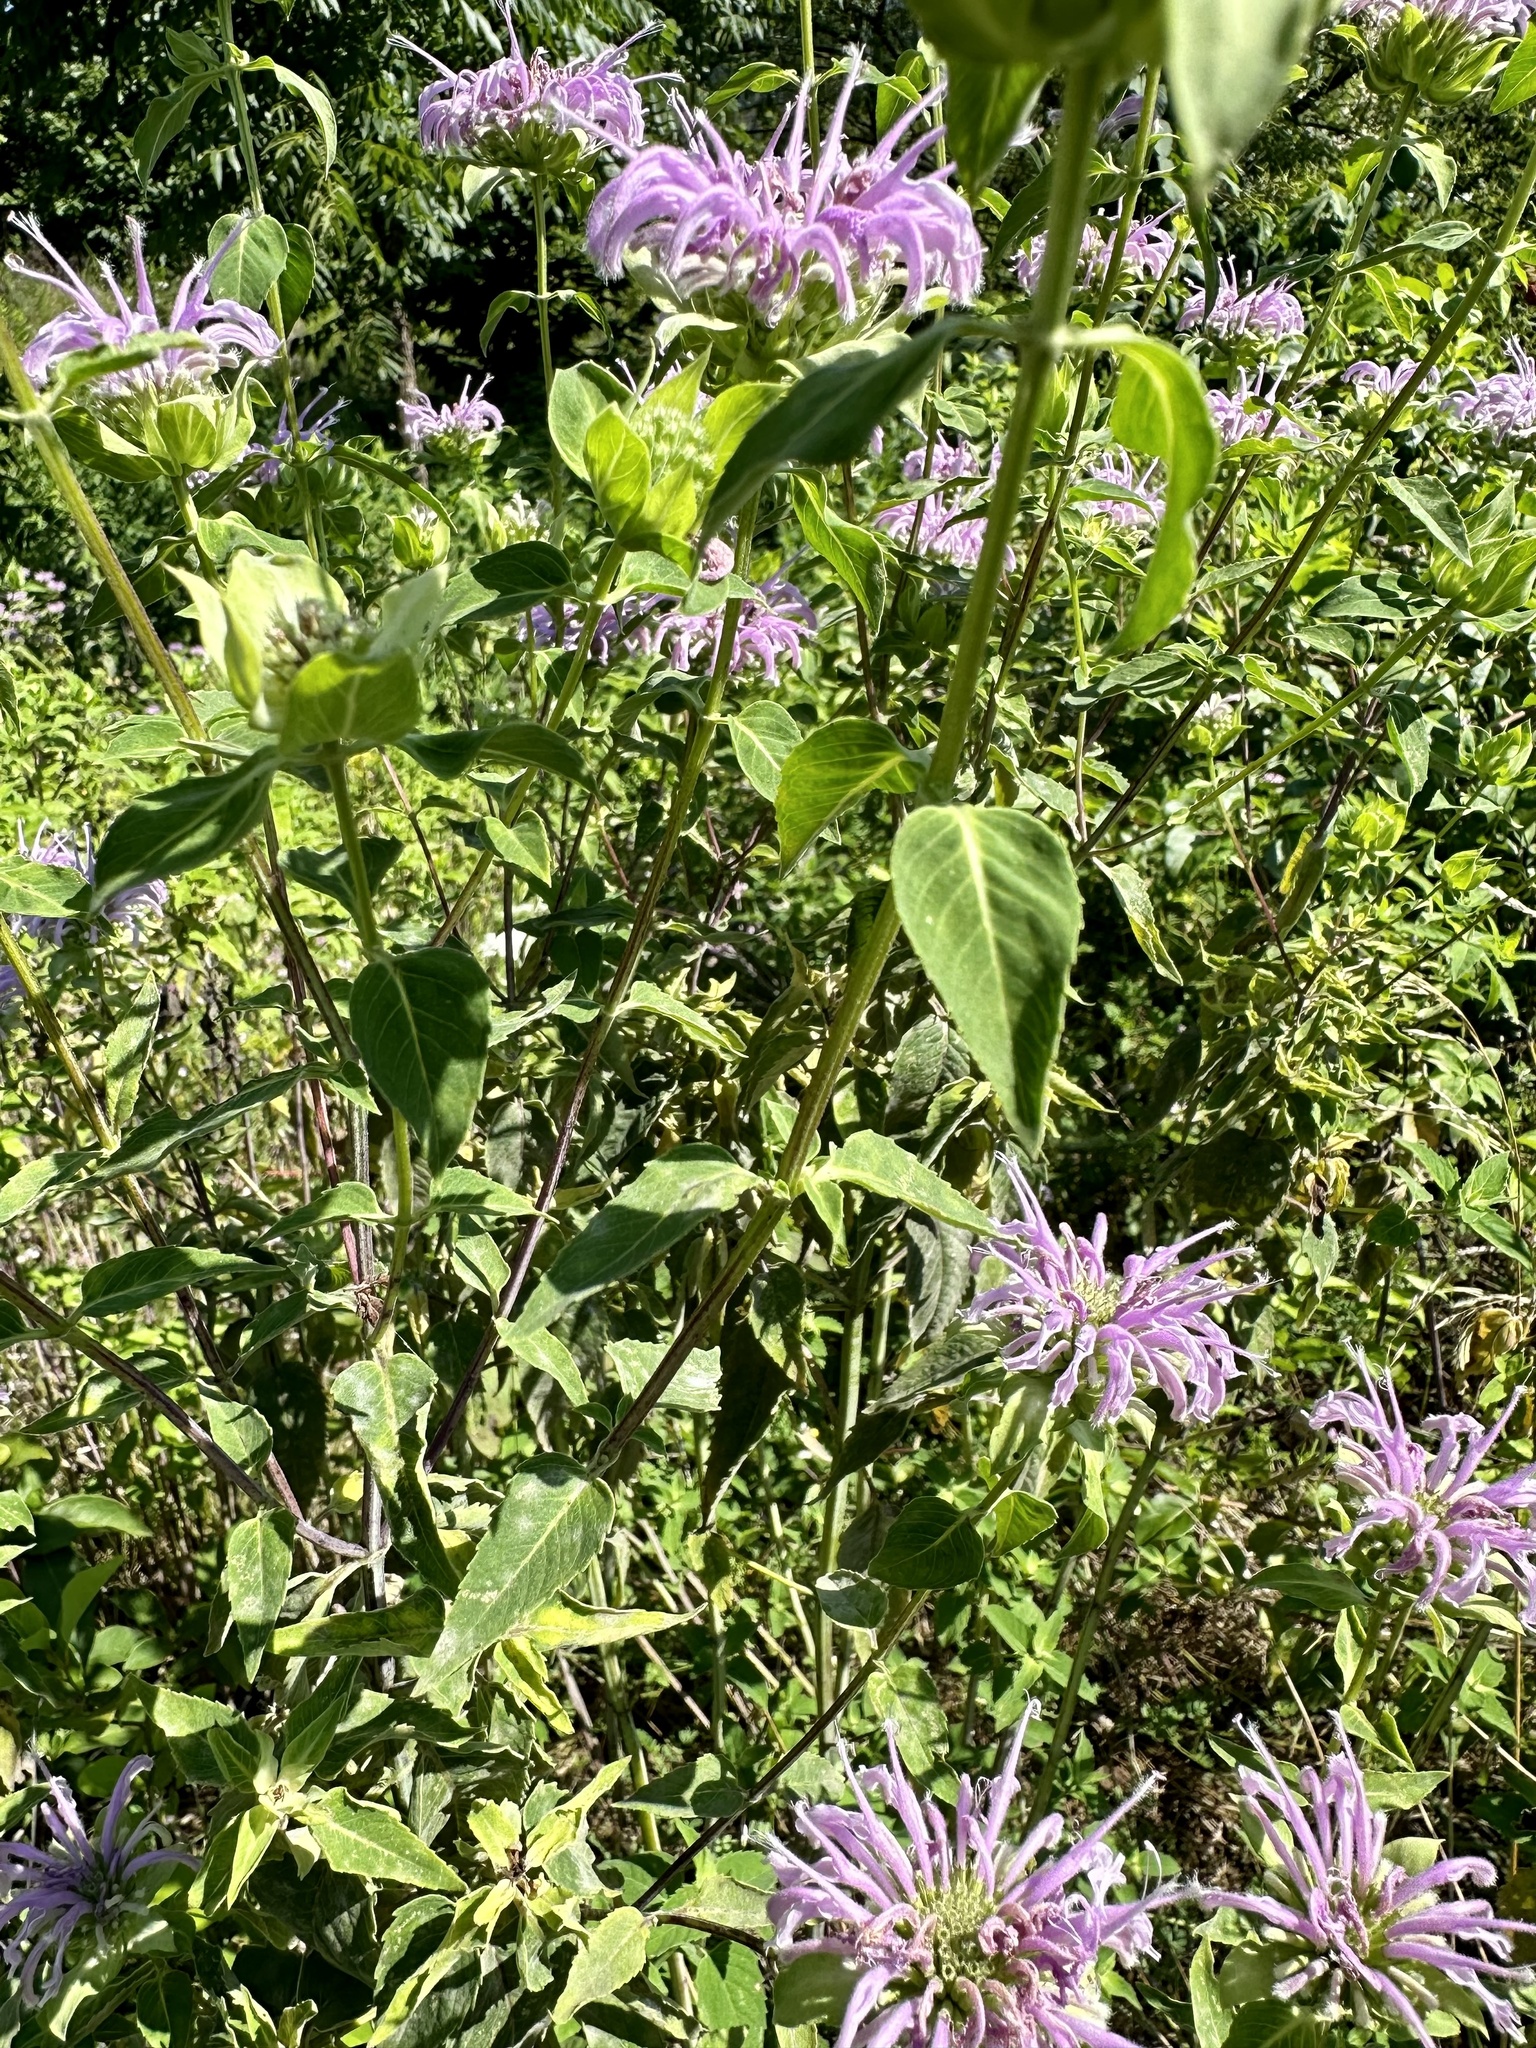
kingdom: Plantae
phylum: Tracheophyta
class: Magnoliopsida
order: Lamiales
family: Lamiaceae
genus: Monarda
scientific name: Monarda fistulosa
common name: Purple beebalm
